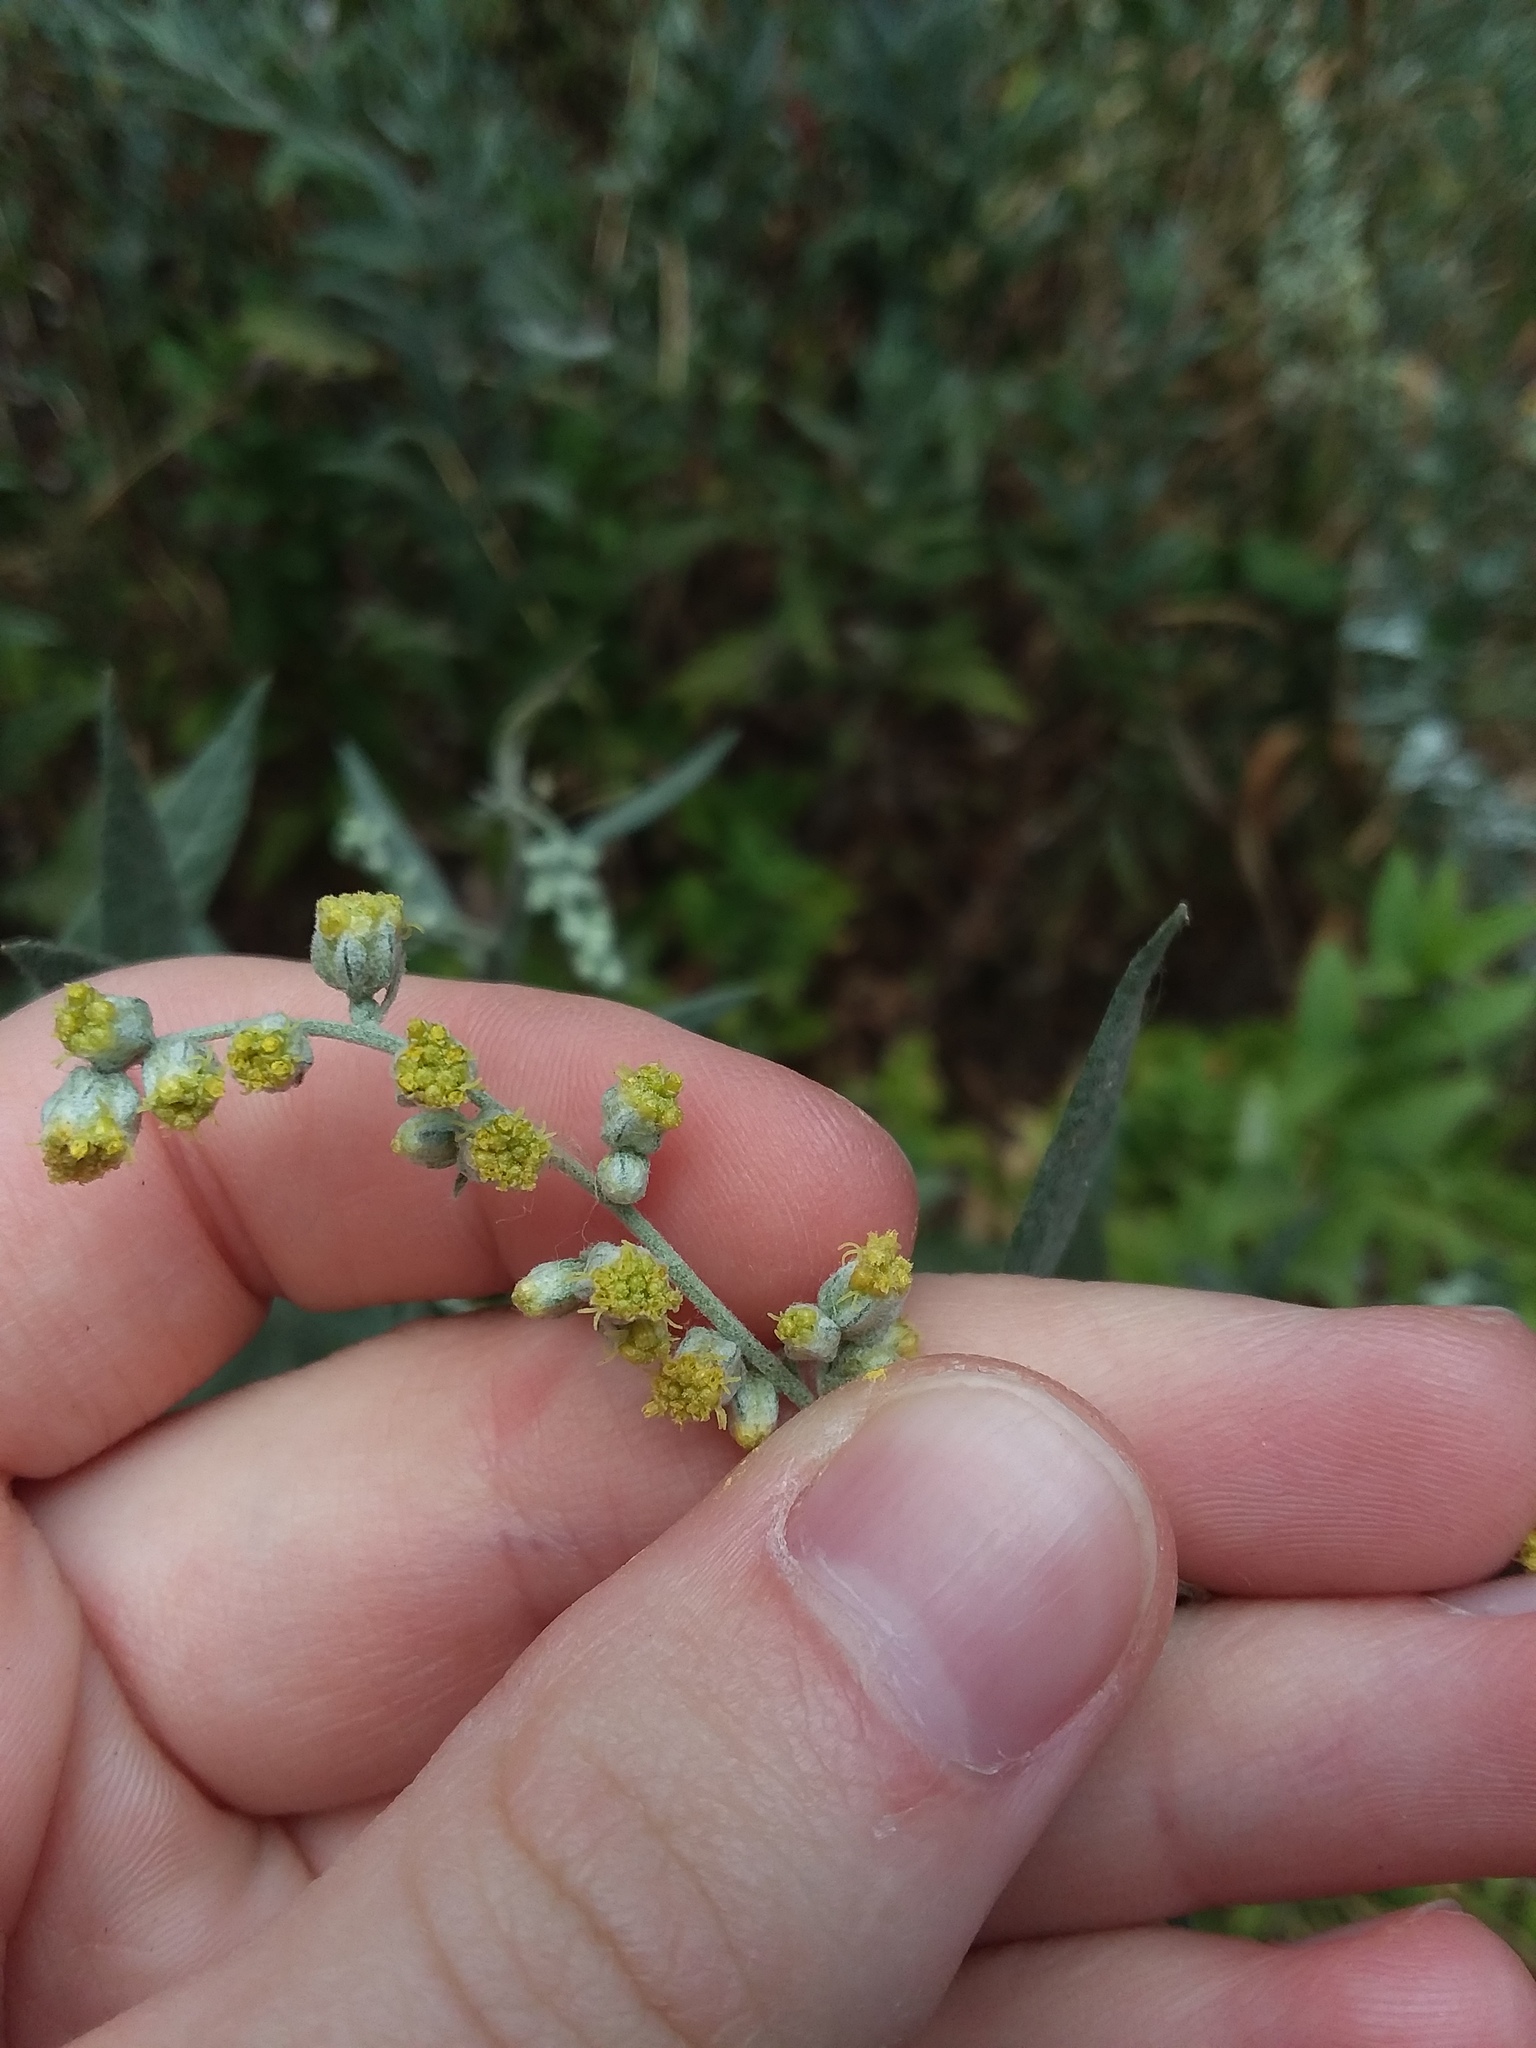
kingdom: Plantae
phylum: Tracheophyta
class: Magnoliopsida
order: Asterales
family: Asteraceae
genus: Artemisia
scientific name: Artemisia douglasiana
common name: Northwest mugwort
